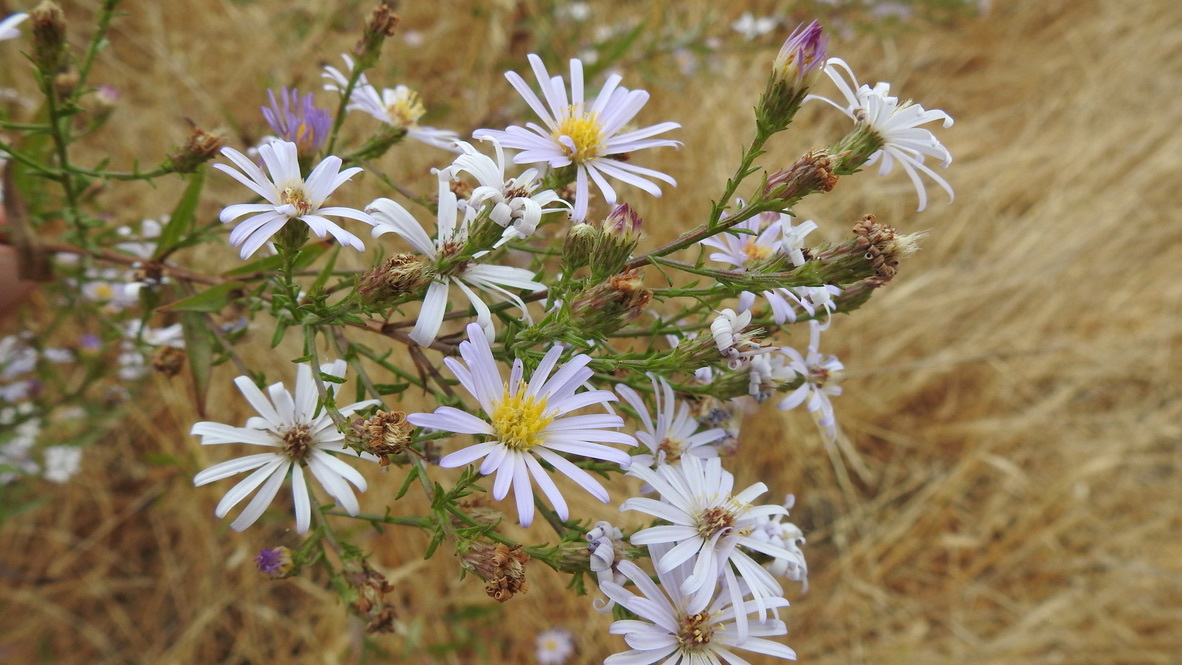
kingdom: Plantae
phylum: Tracheophyta
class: Magnoliopsida
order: Asterales
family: Asteraceae
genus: Symphyotrichum
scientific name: Symphyotrichum chilense
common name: Pacific aster
